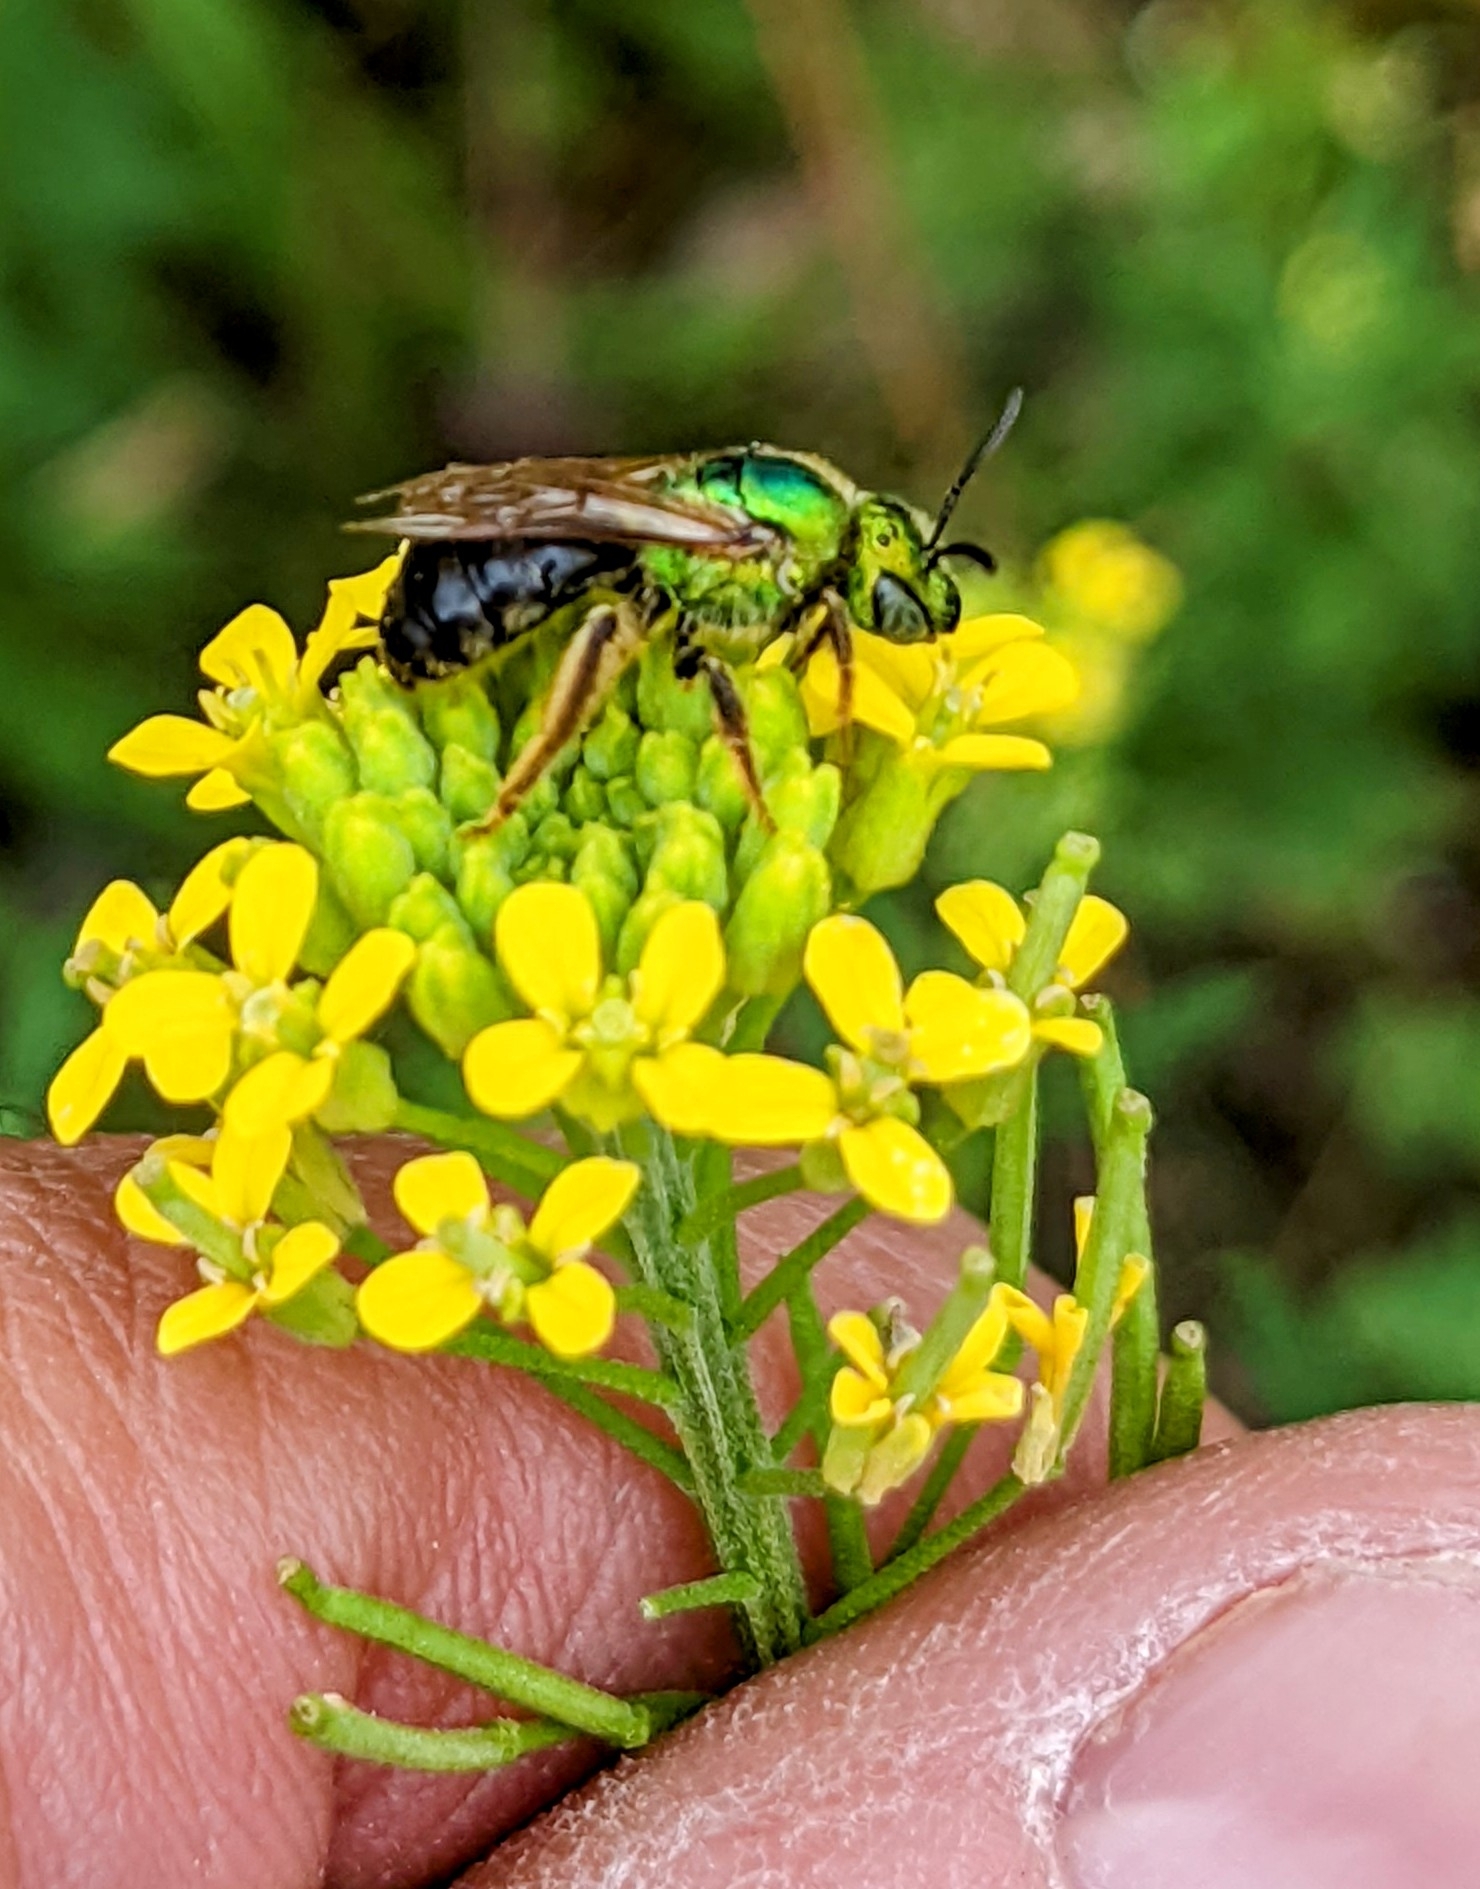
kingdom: Animalia
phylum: Arthropoda
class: Insecta
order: Hymenoptera
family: Halictidae
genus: Agapostemon
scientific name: Agapostemon virescens
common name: Bicolored striped sweat bee
